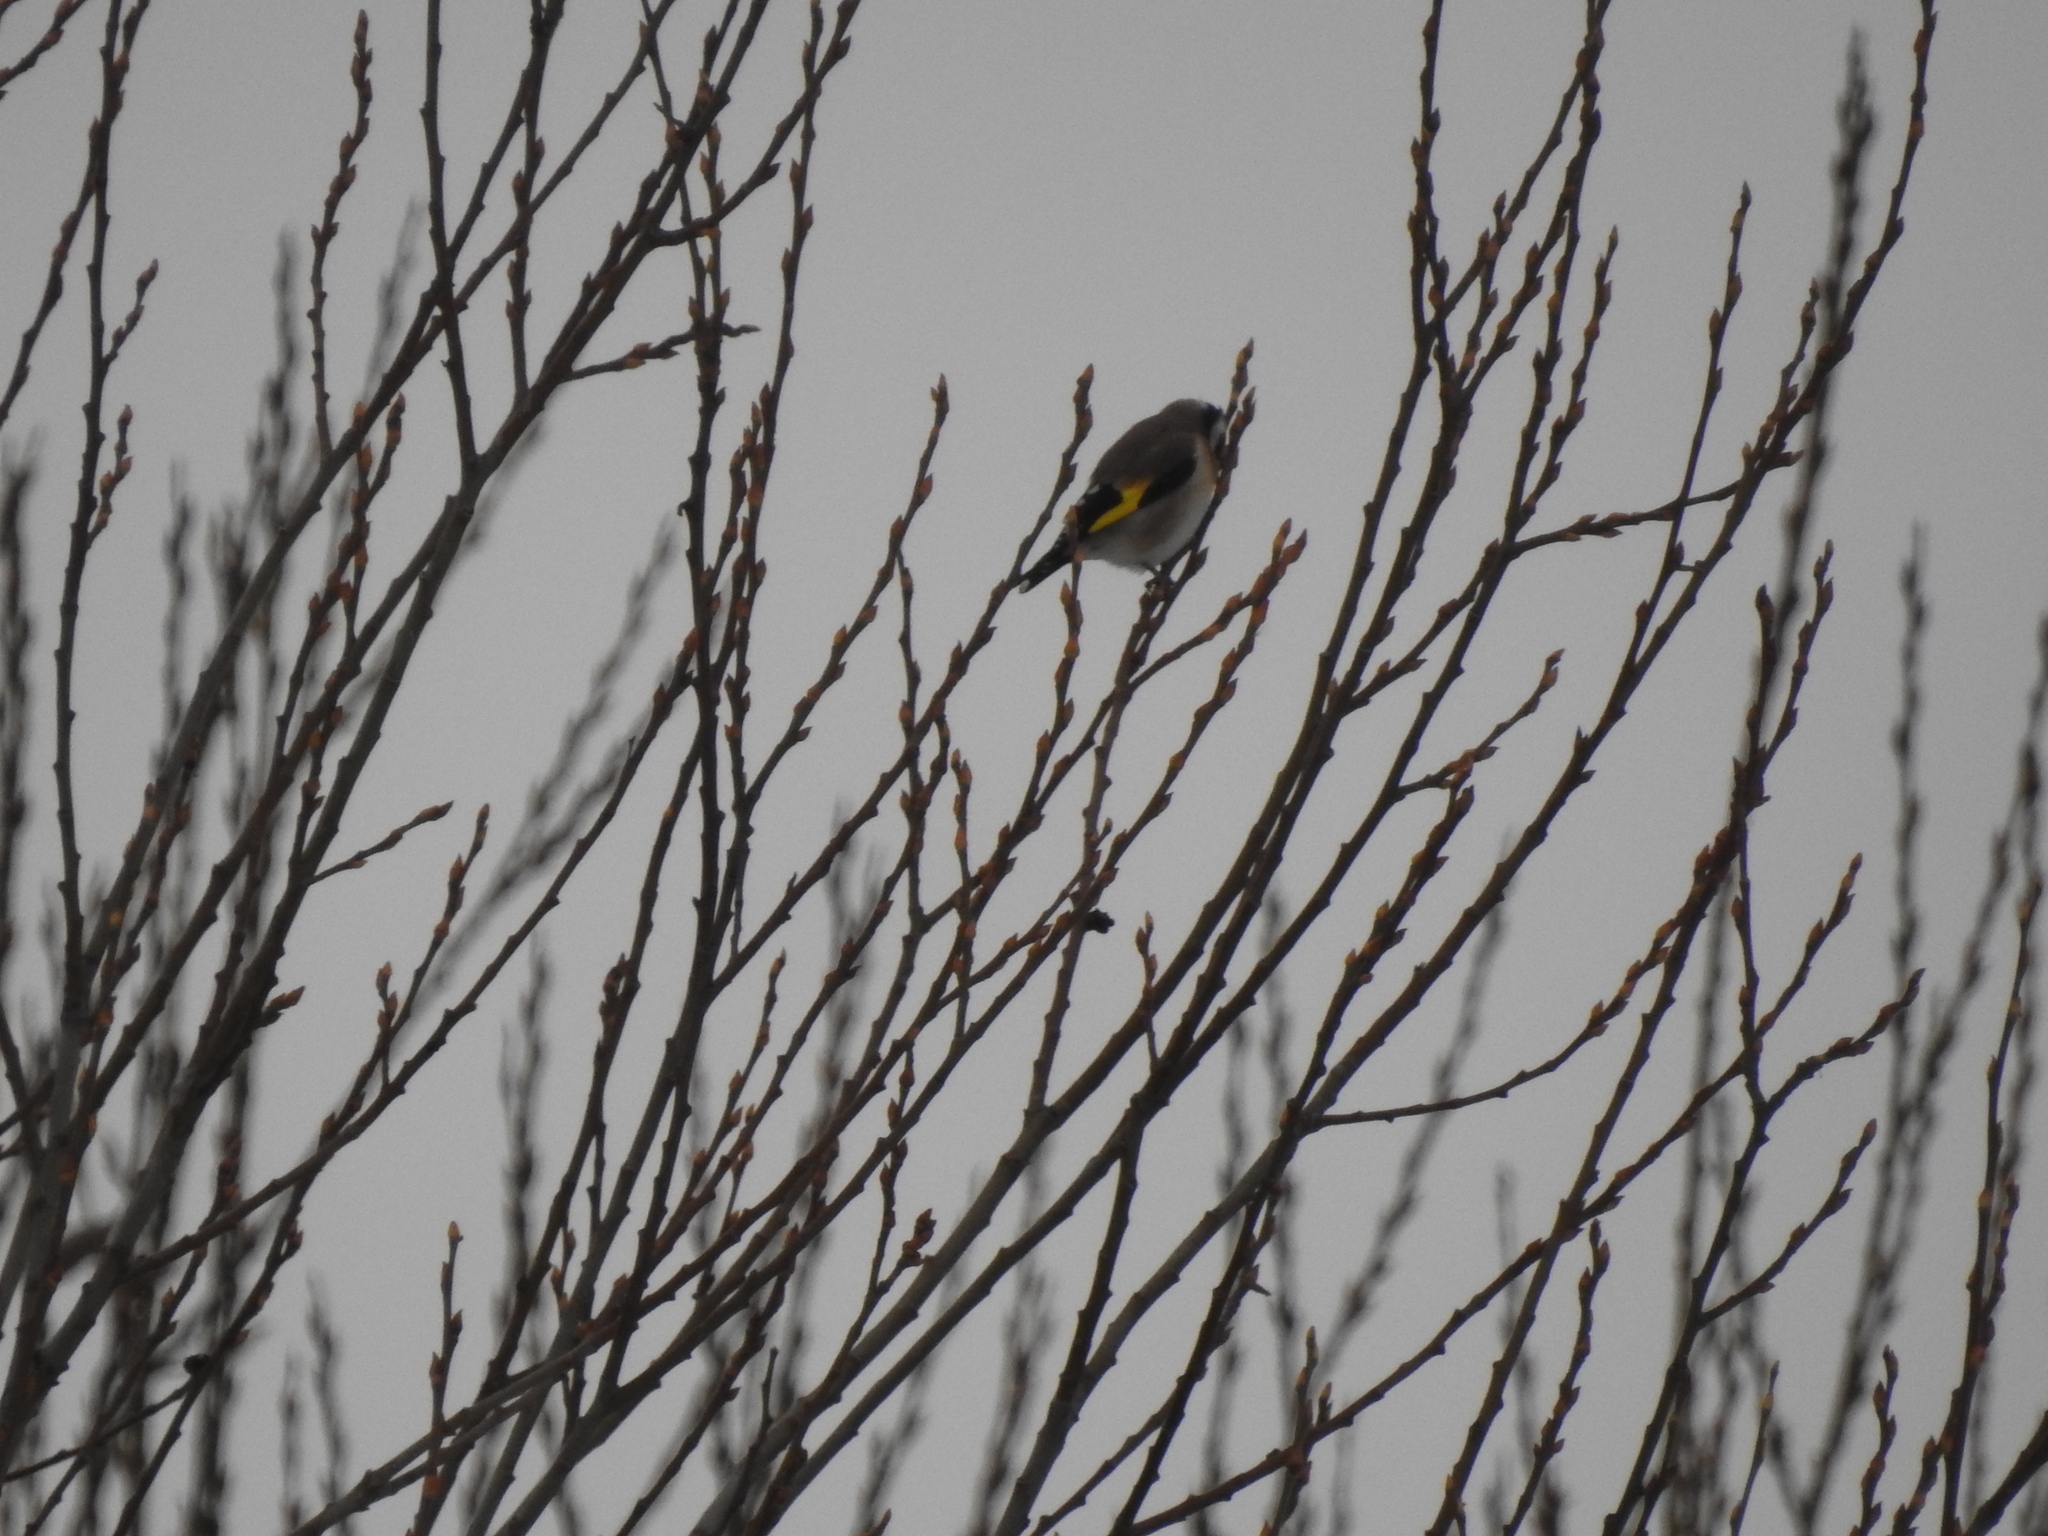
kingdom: Animalia
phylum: Chordata
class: Aves
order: Passeriformes
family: Fringillidae
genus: Carduelis
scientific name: Carduelis carduelis
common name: European goldfinch
